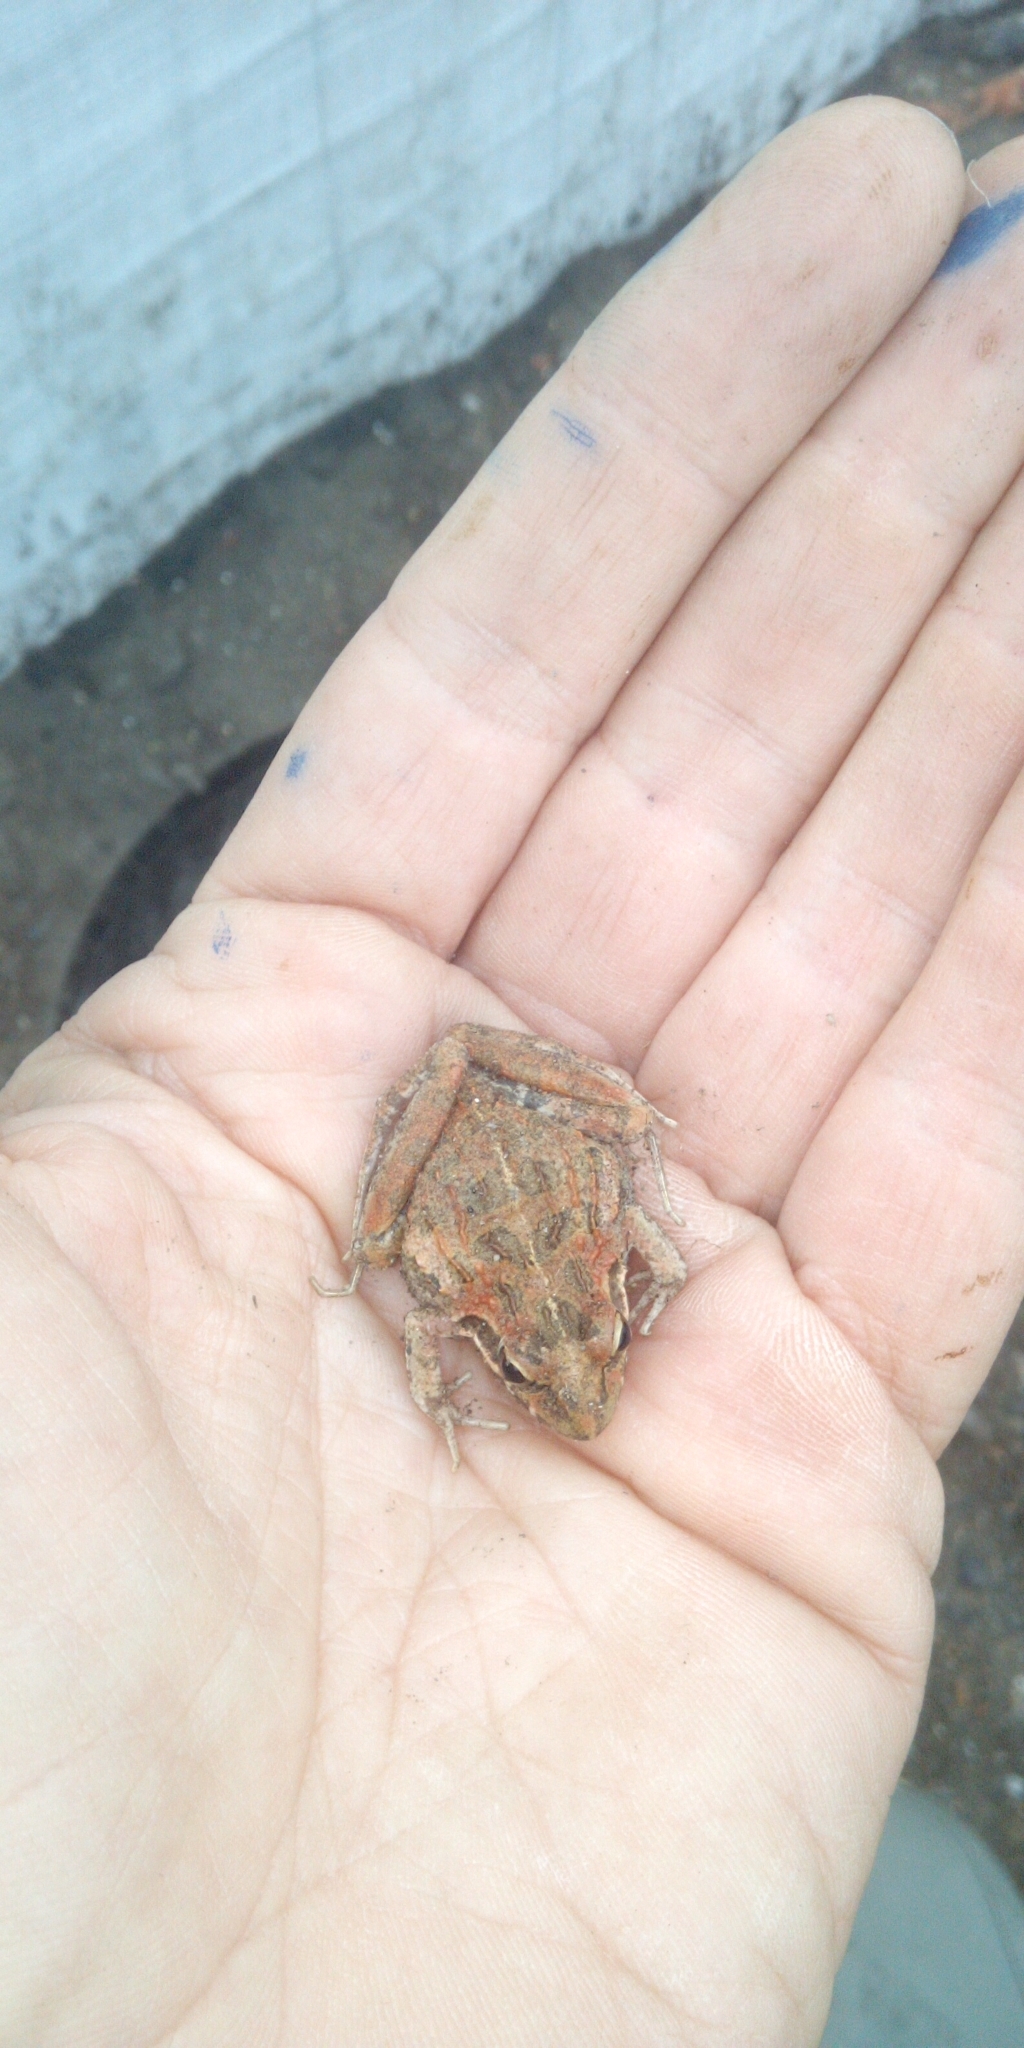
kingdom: Animalia
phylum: Chordata
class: Amphibia
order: Anura
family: Pyxicephalidae
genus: Strongylopus
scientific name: Strongylopus grayii
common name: Gray's stream frog
